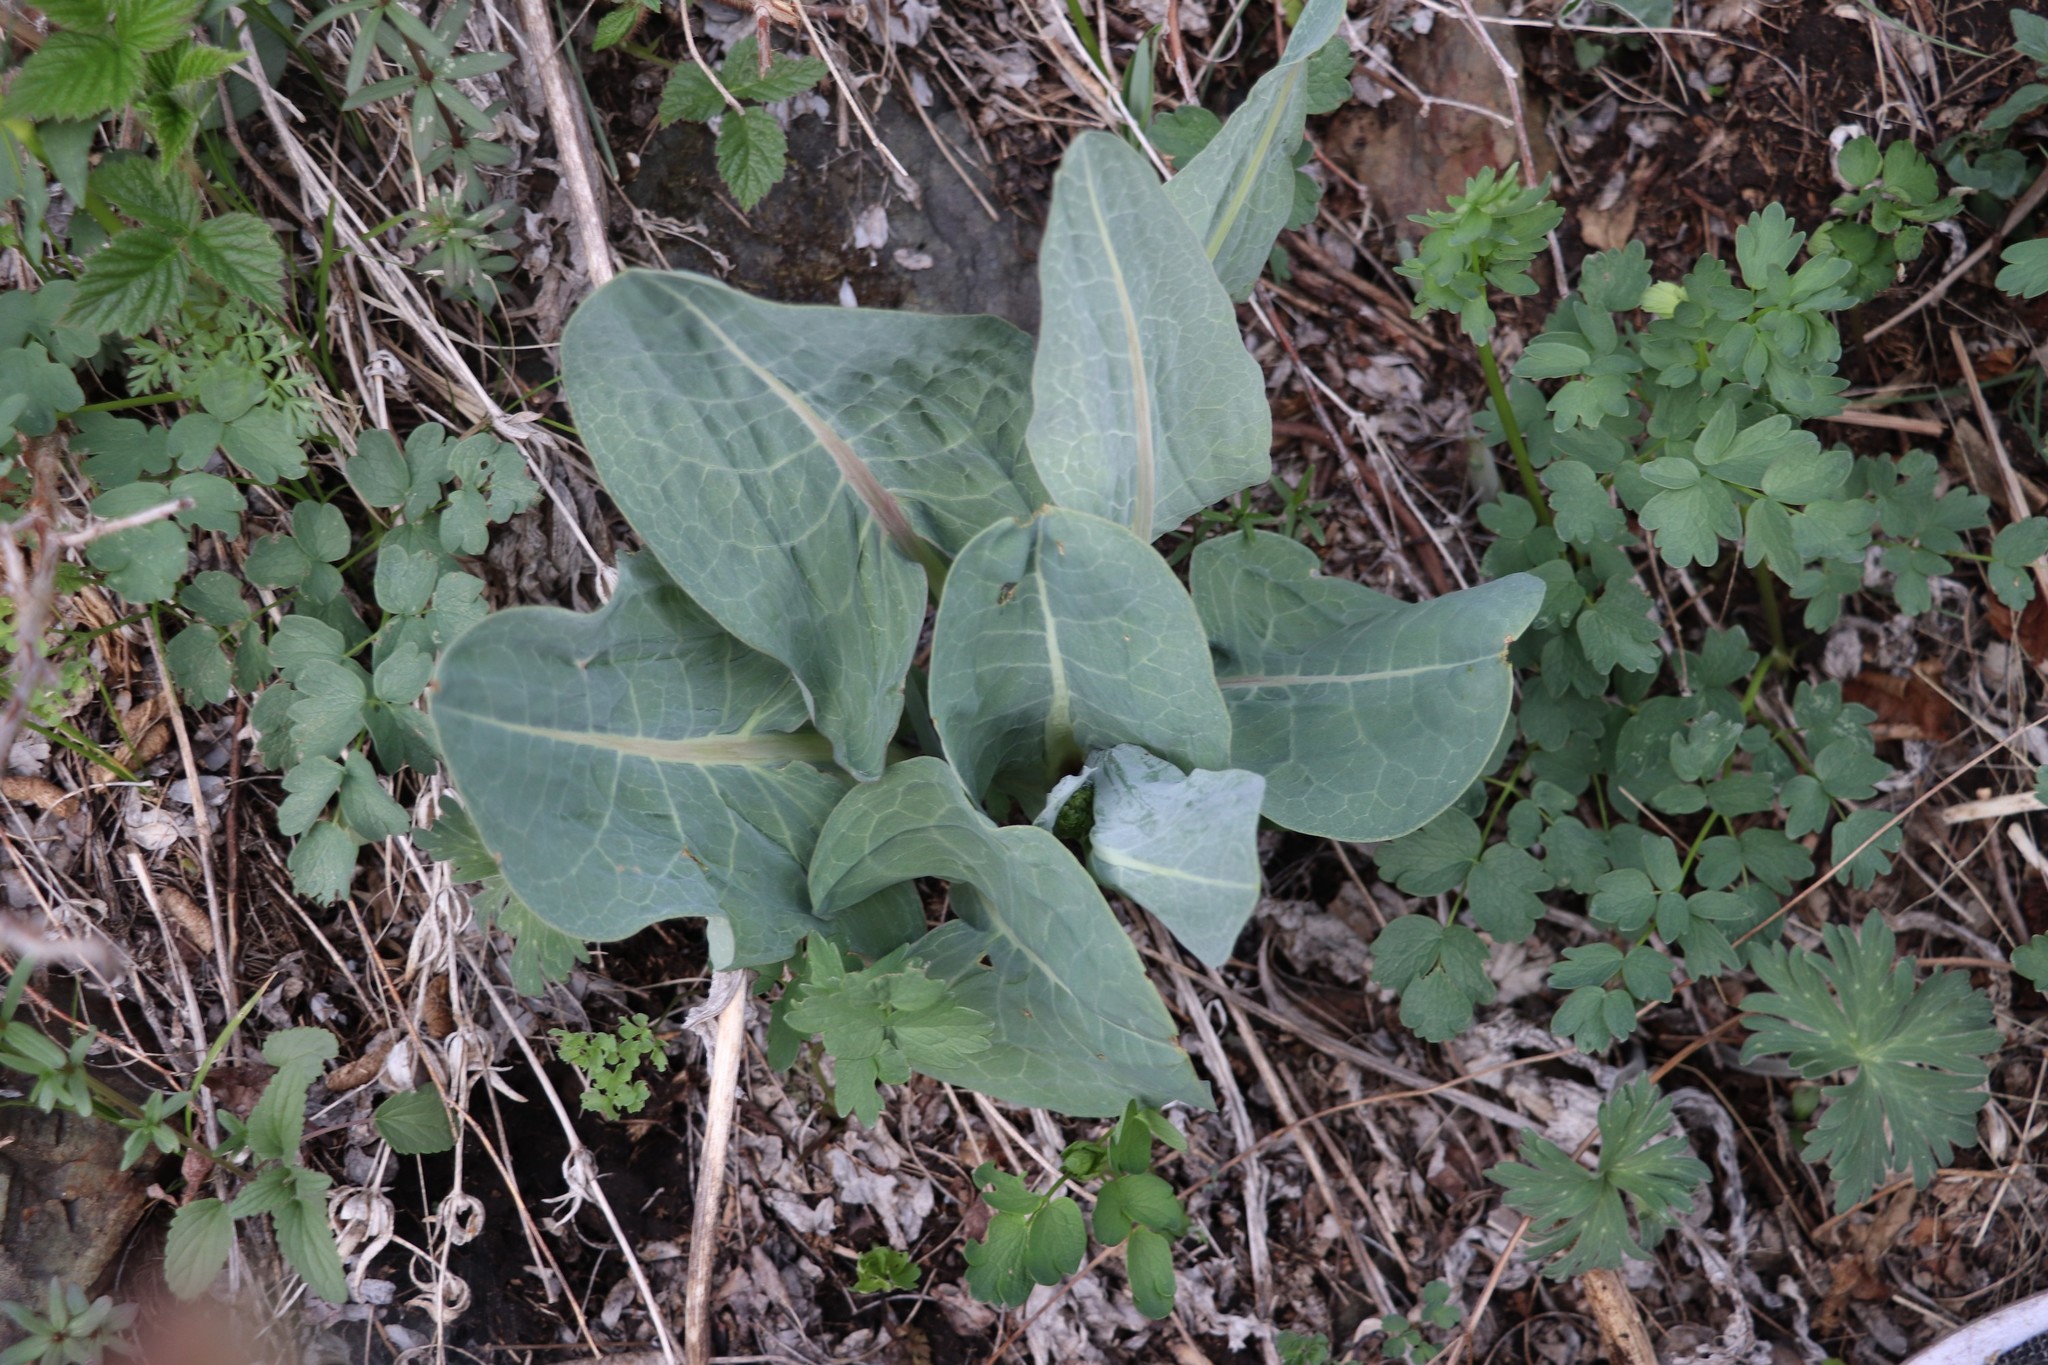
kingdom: Plantae
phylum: Tracheophyta
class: Magnoliopsida
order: Asterales
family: Asteraceae
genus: Ligularia
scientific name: Ligularia glauca
